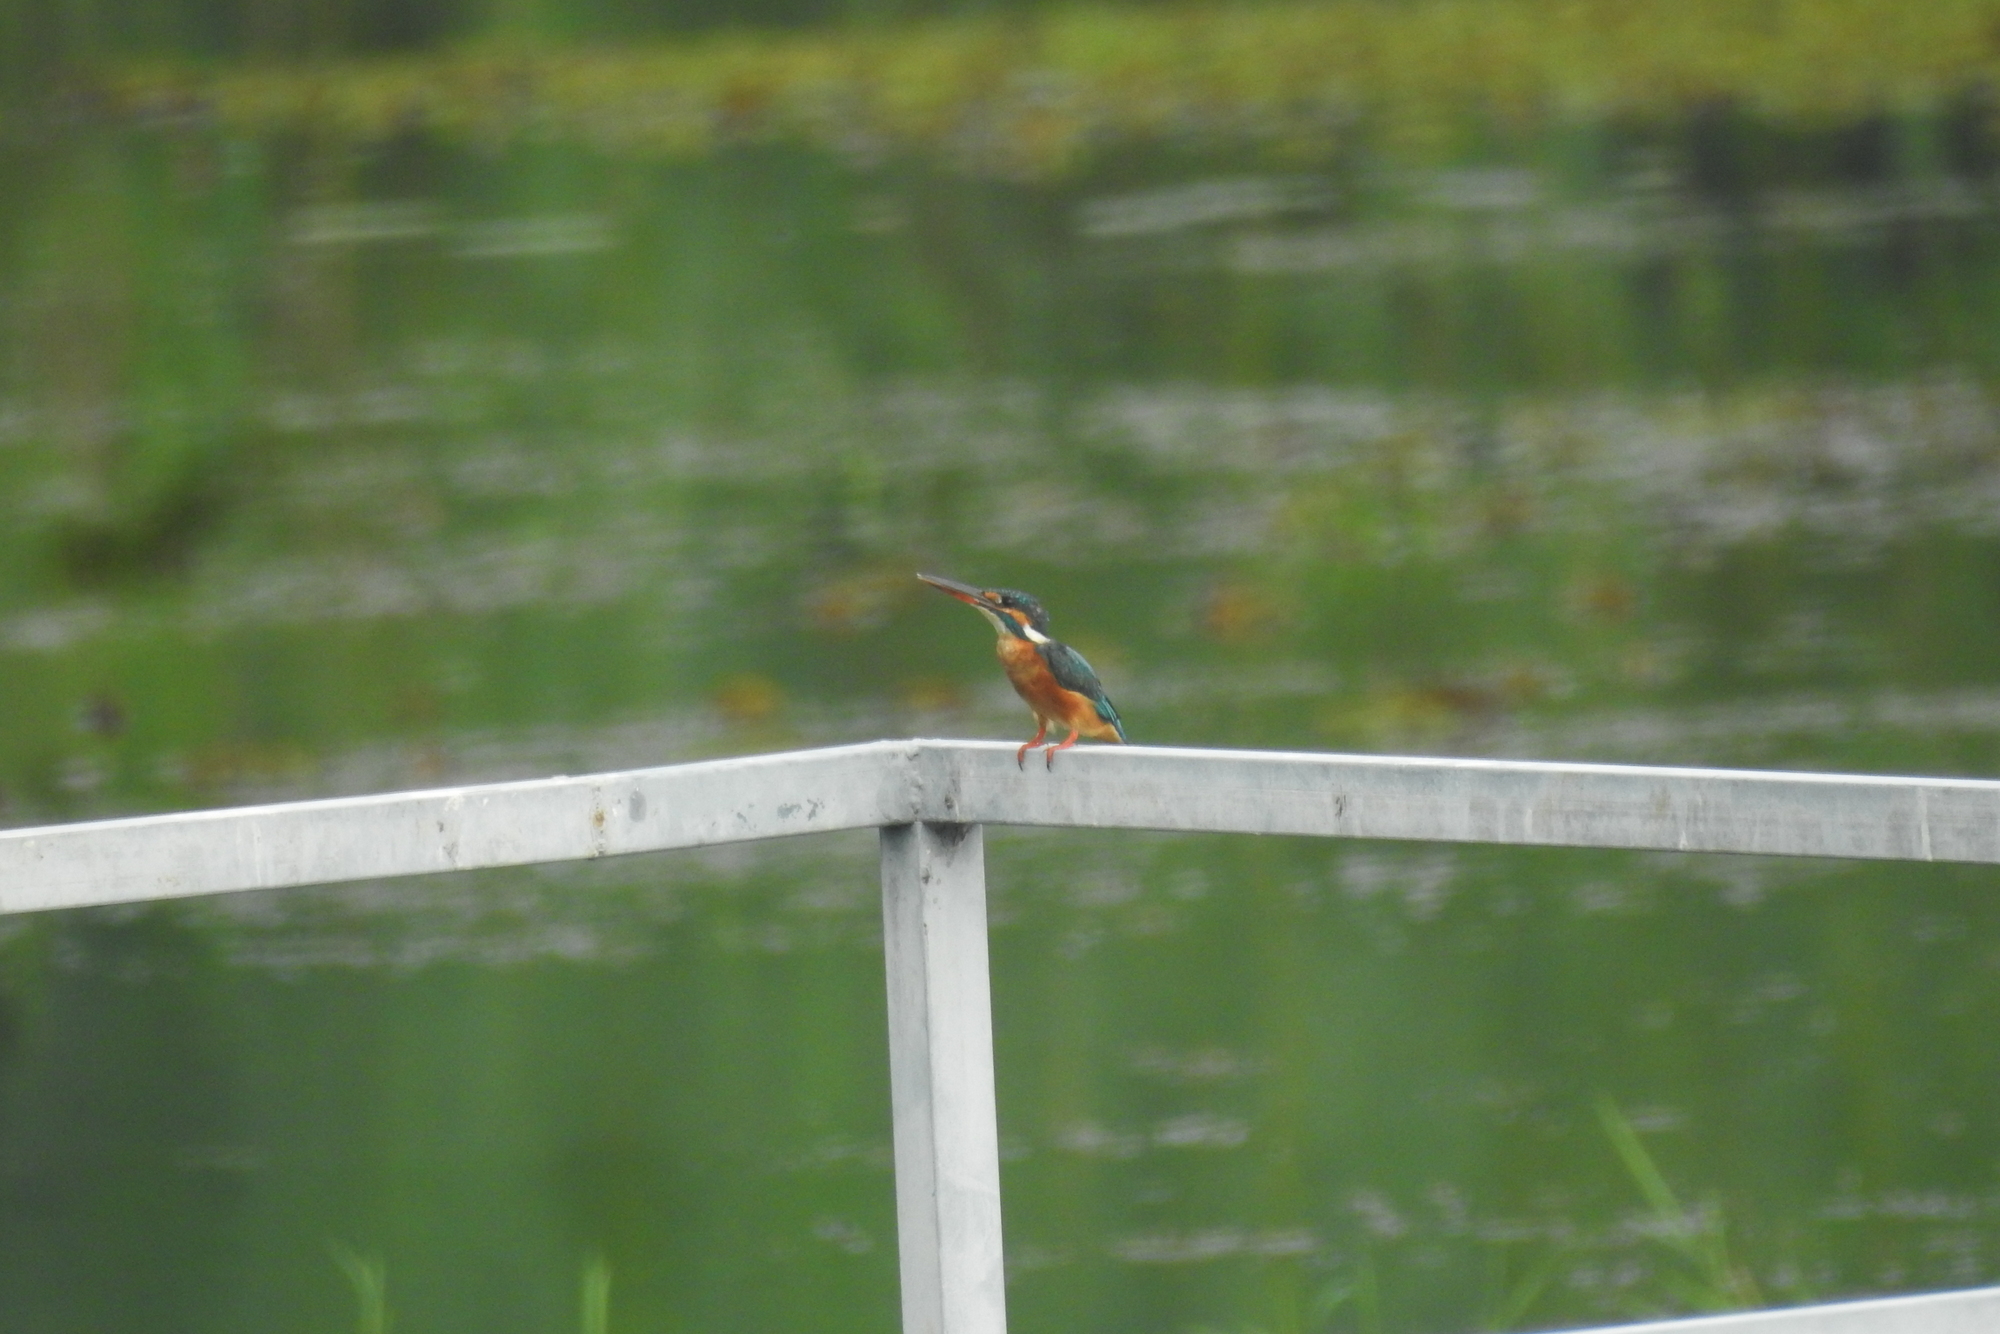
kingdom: Animalia
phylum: Chordata
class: Aves
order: Coraciiformes
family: Alcedinidae
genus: Alcedo
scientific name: Alcedo atthis
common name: Common kingfisher
